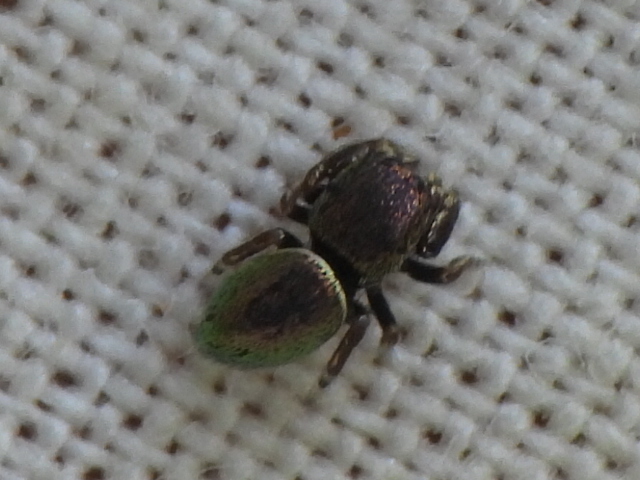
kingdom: Animalia
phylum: Arthropoda
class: Arachnida
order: Araneae
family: Salticidae
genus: Sassacus
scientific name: Sassacus papenhoei
